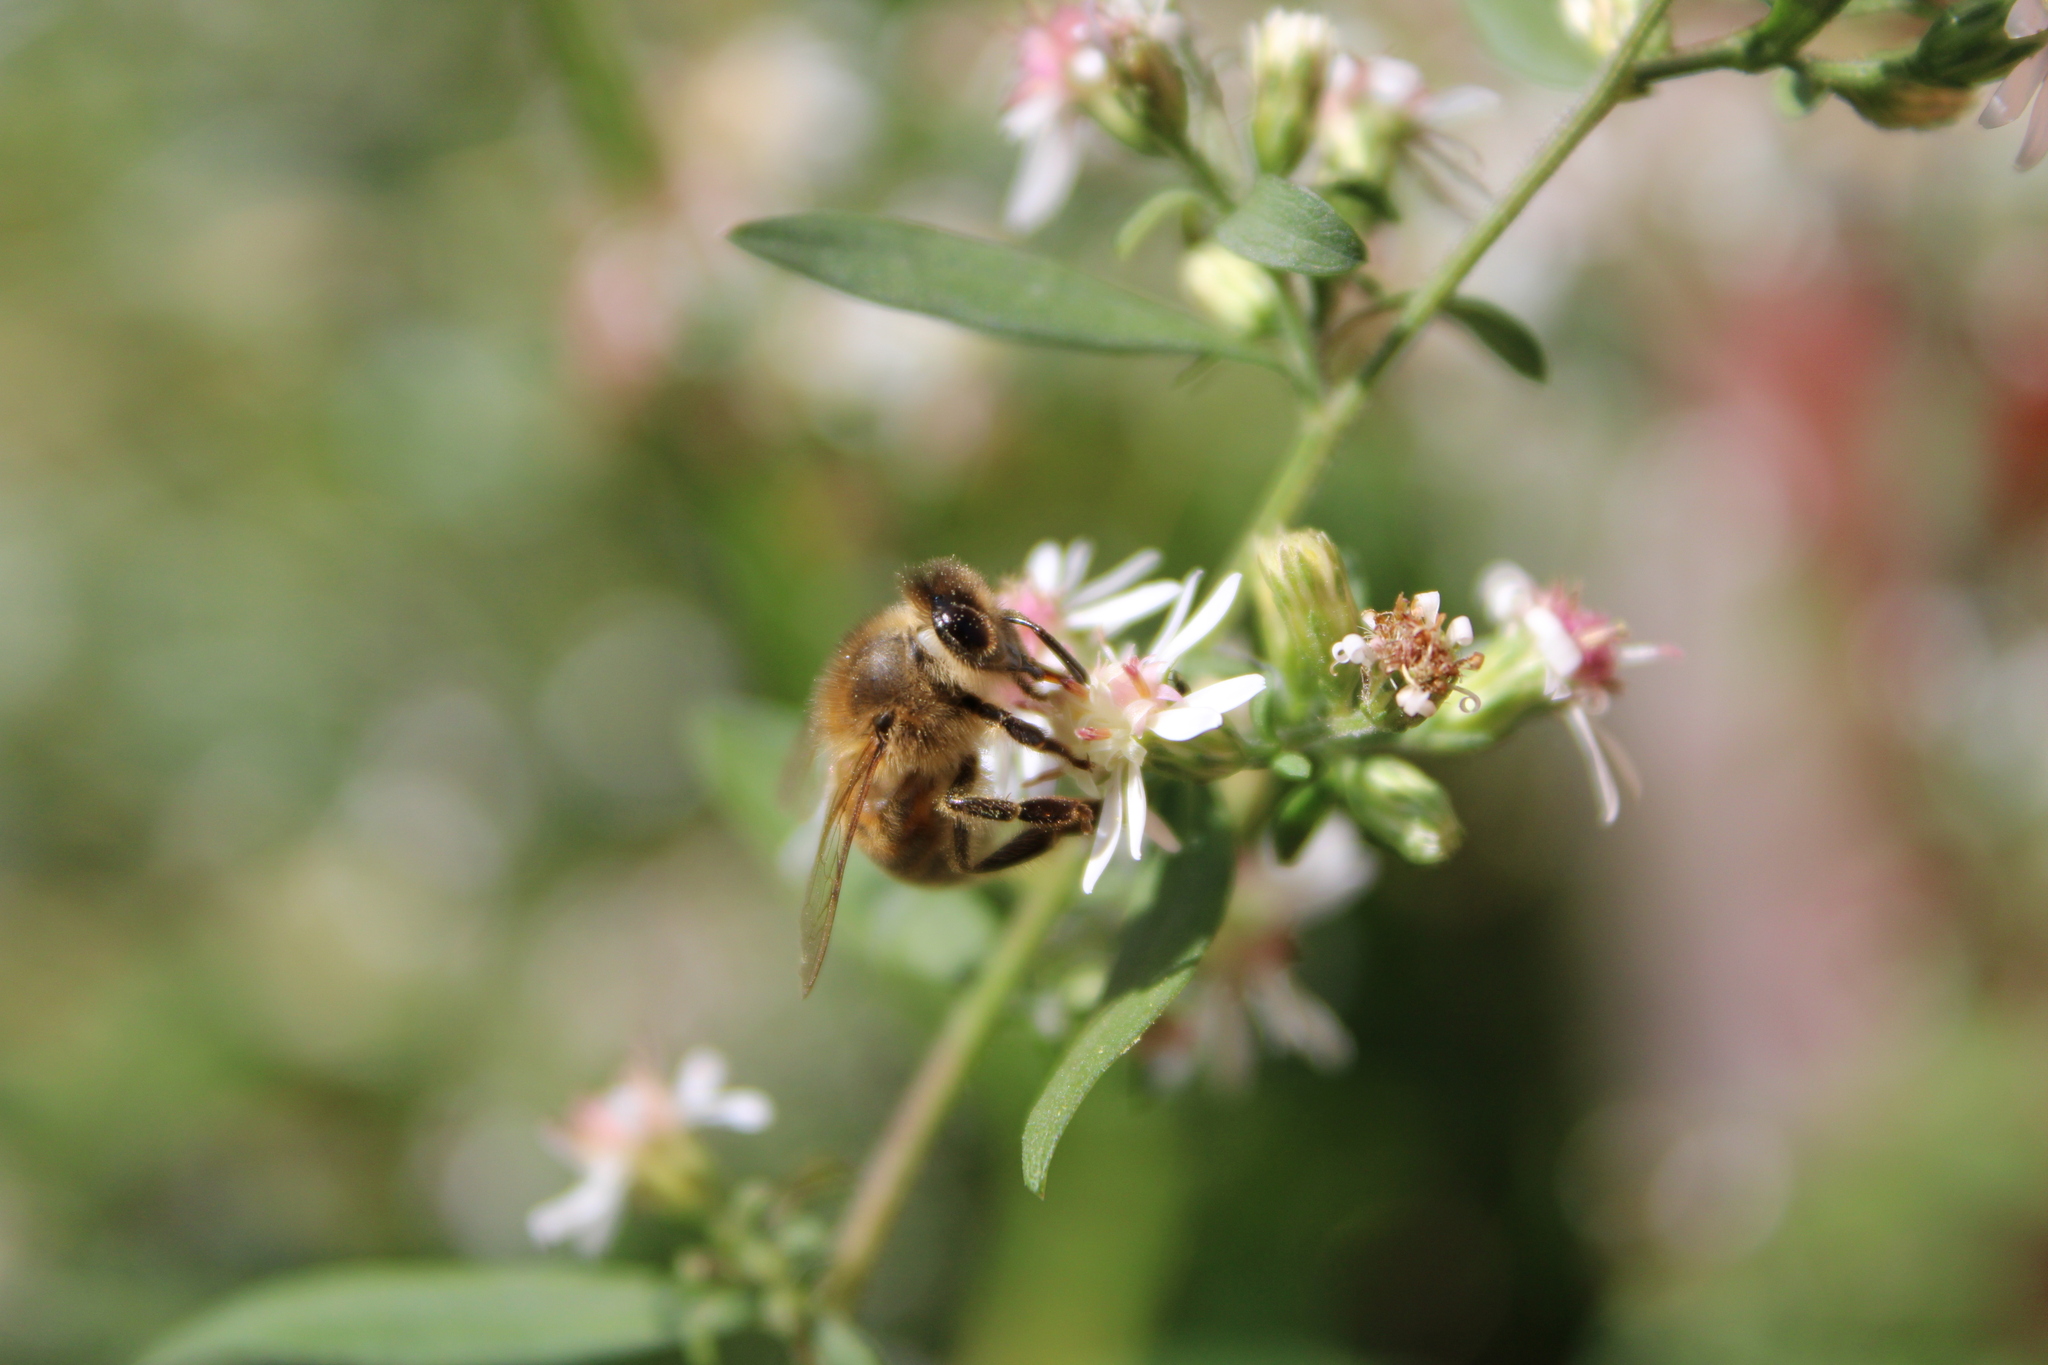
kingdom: Animalia
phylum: Arthropoda
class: Insecta
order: Hymenoptera
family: Apidae
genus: Apis
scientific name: Apis mellifera
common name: Honey bee
